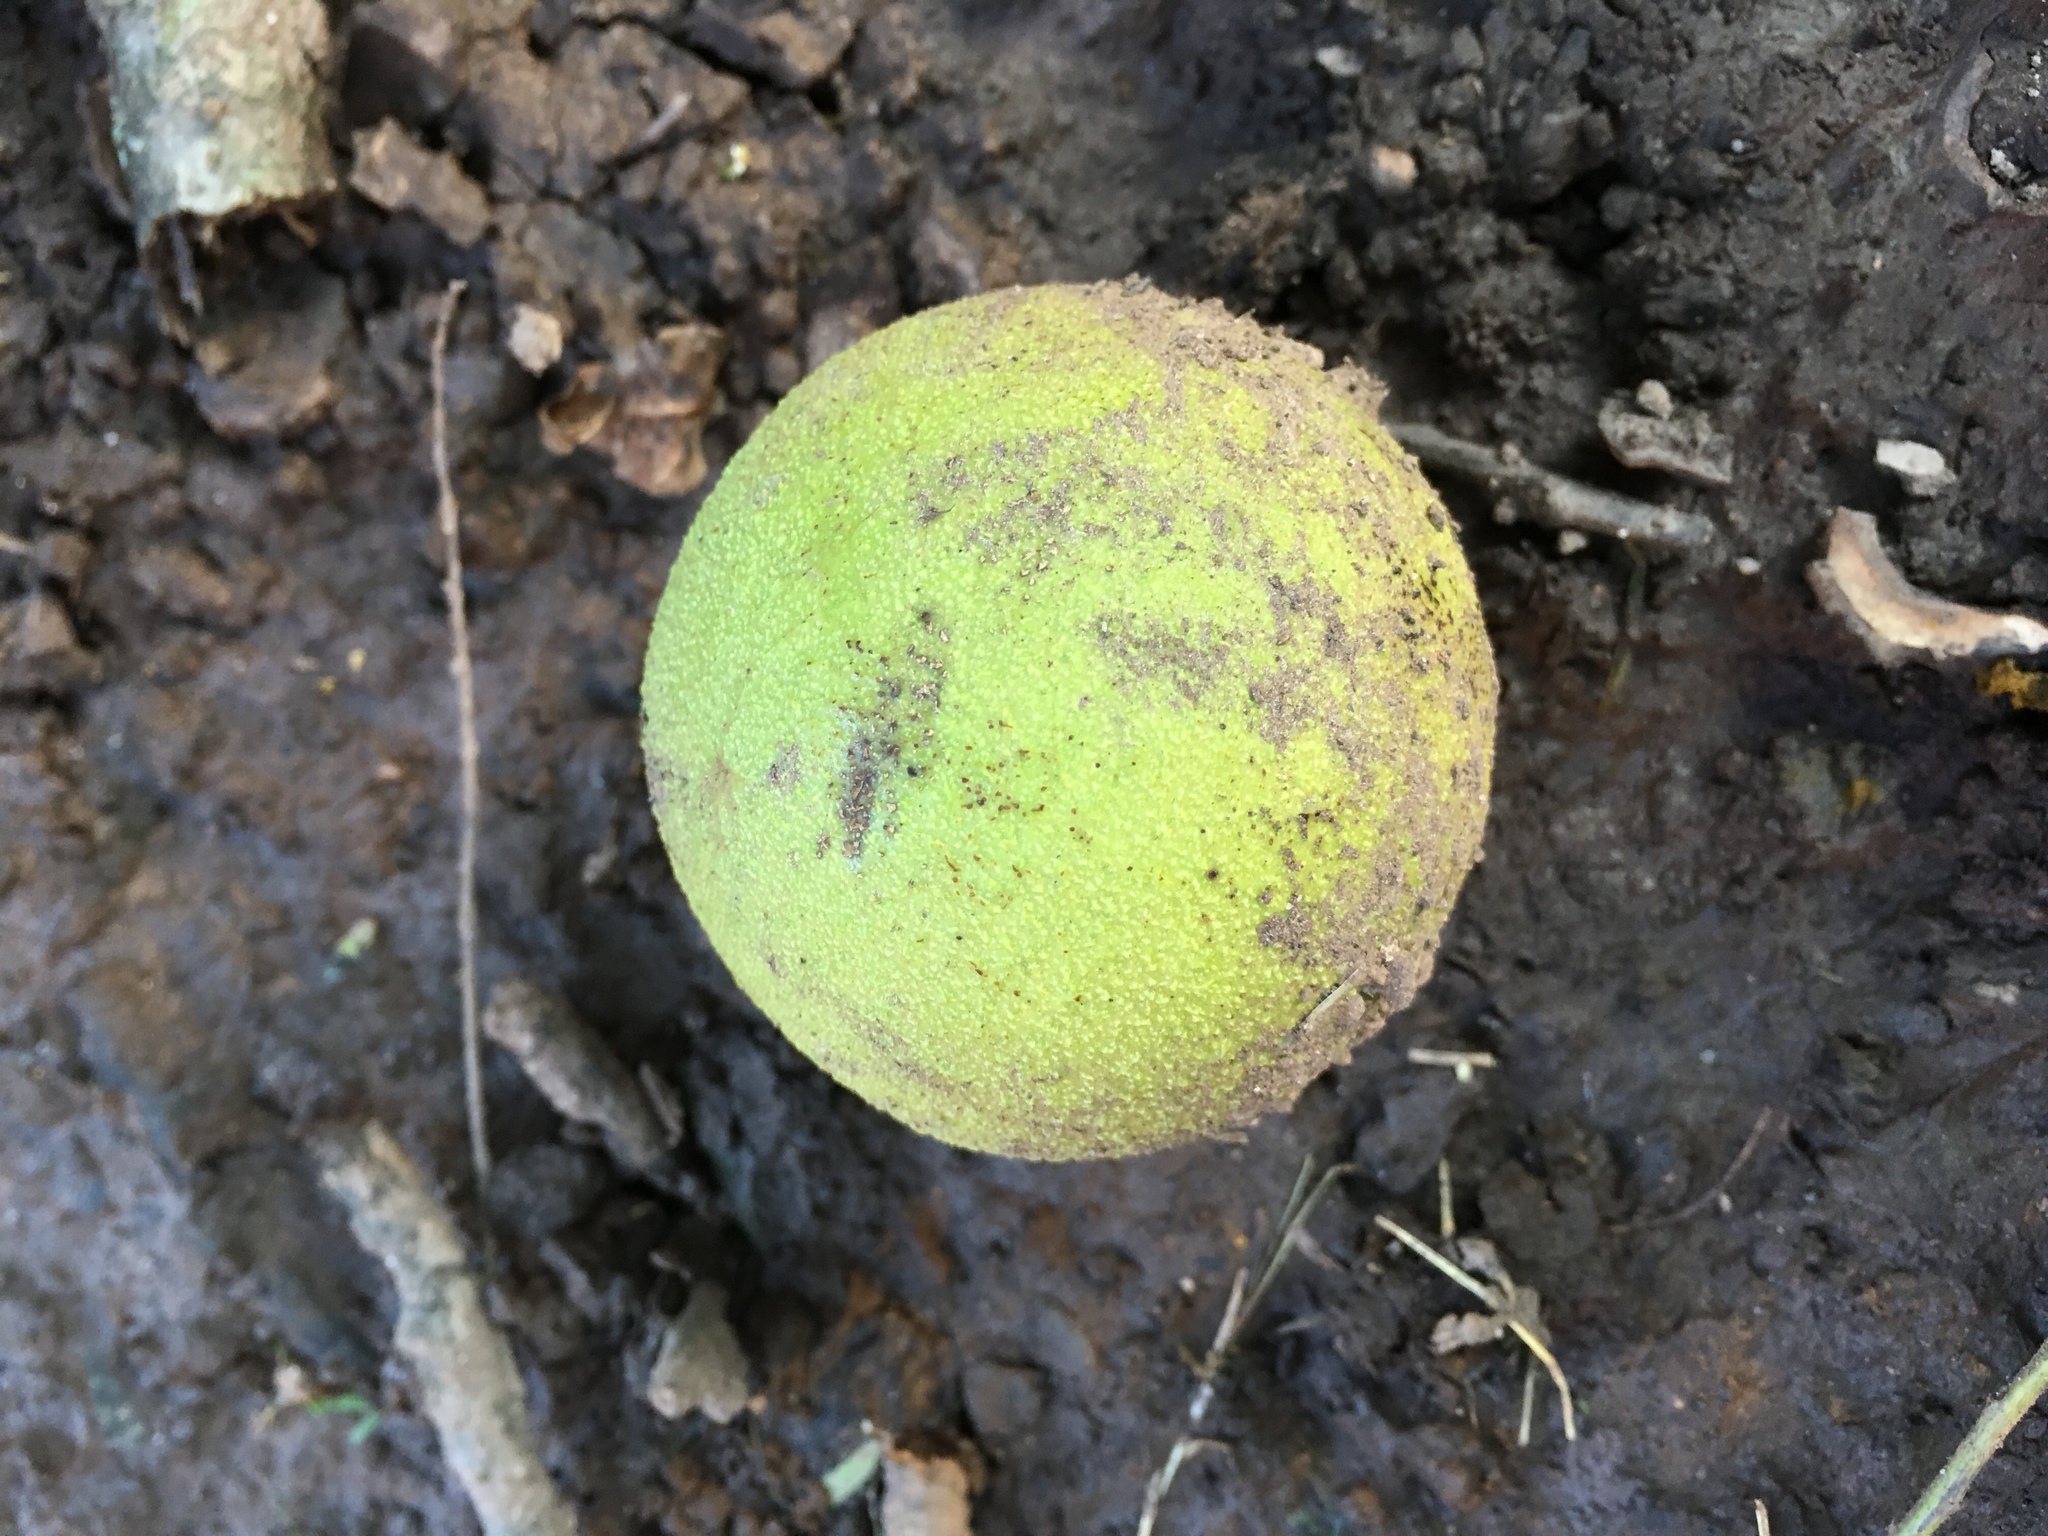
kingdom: Plantae
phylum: Tracheophyta
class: Magnoliopsida
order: Fagales
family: Juglandaceae
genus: Juglans
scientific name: Juglans nigra
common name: Black walnut
